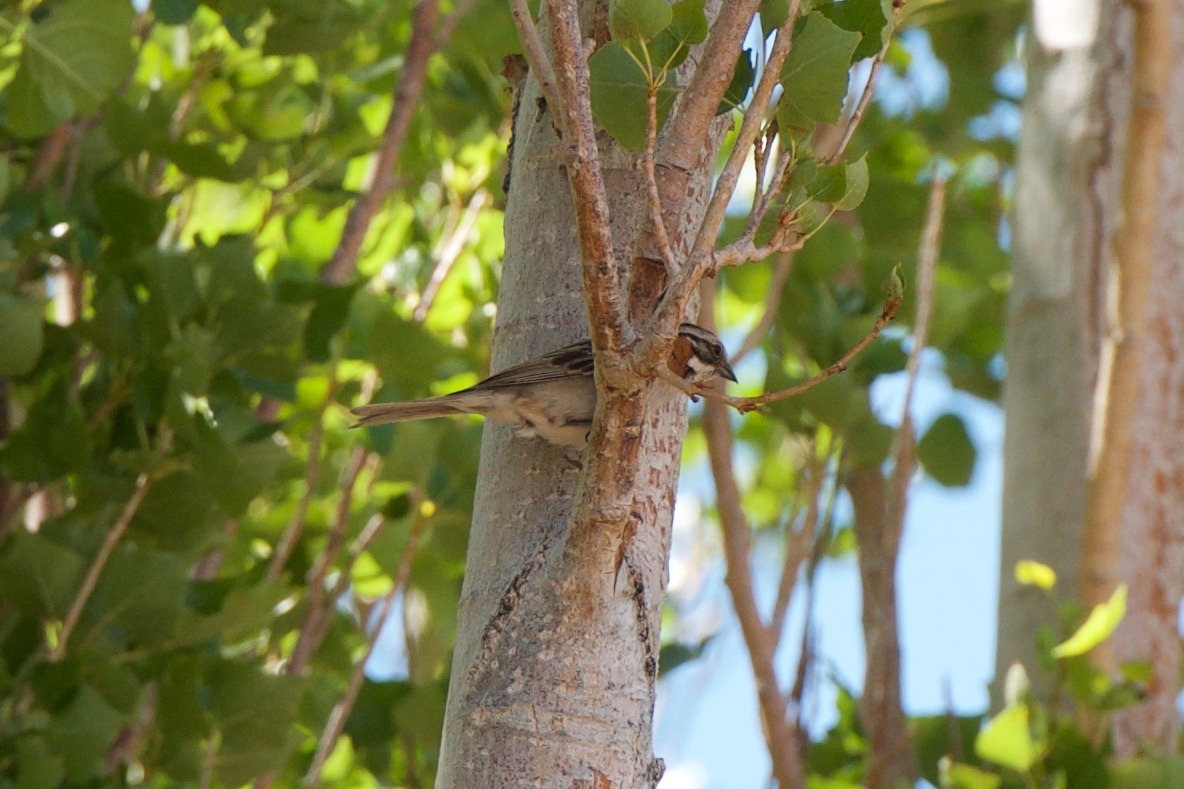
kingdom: Animalia
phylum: Chordata
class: Aves
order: Passeriformes
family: Passerellidae
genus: Zonotrichia
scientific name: Zonotrichia capensis
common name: Rufous-collared sparrow
